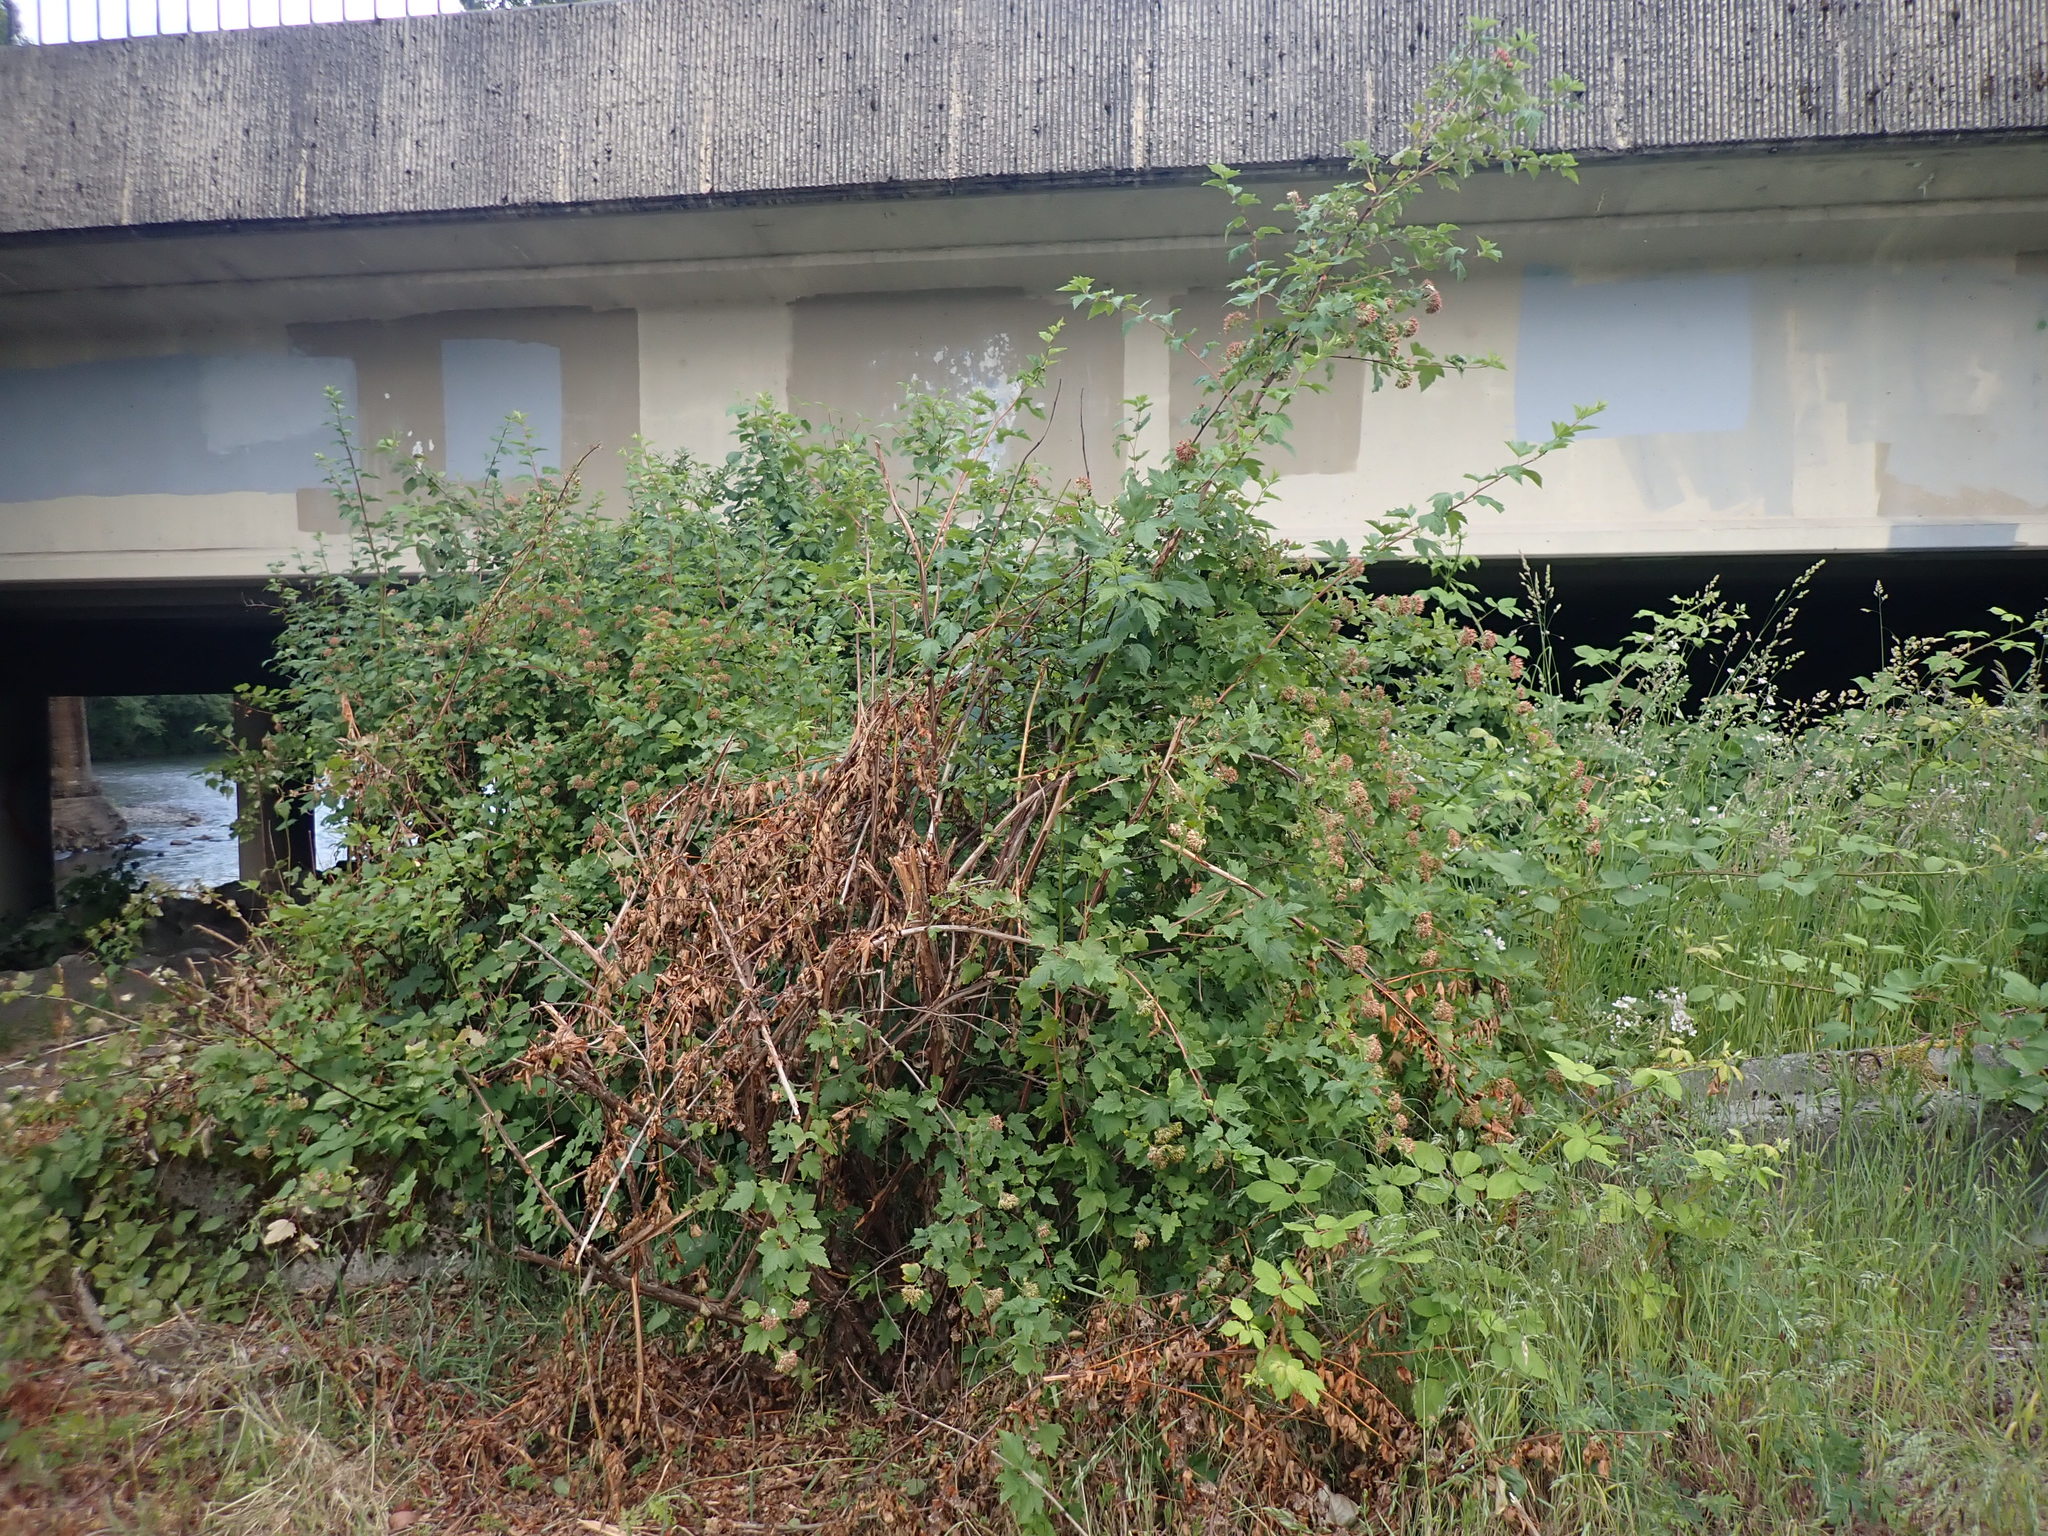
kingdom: Plantae
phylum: Tracheophyta
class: Magnoliopsida
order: Rosales
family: Rosaceae
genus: Physocarpus
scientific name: Physocarpus capitatus
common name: Pacific ninebark
